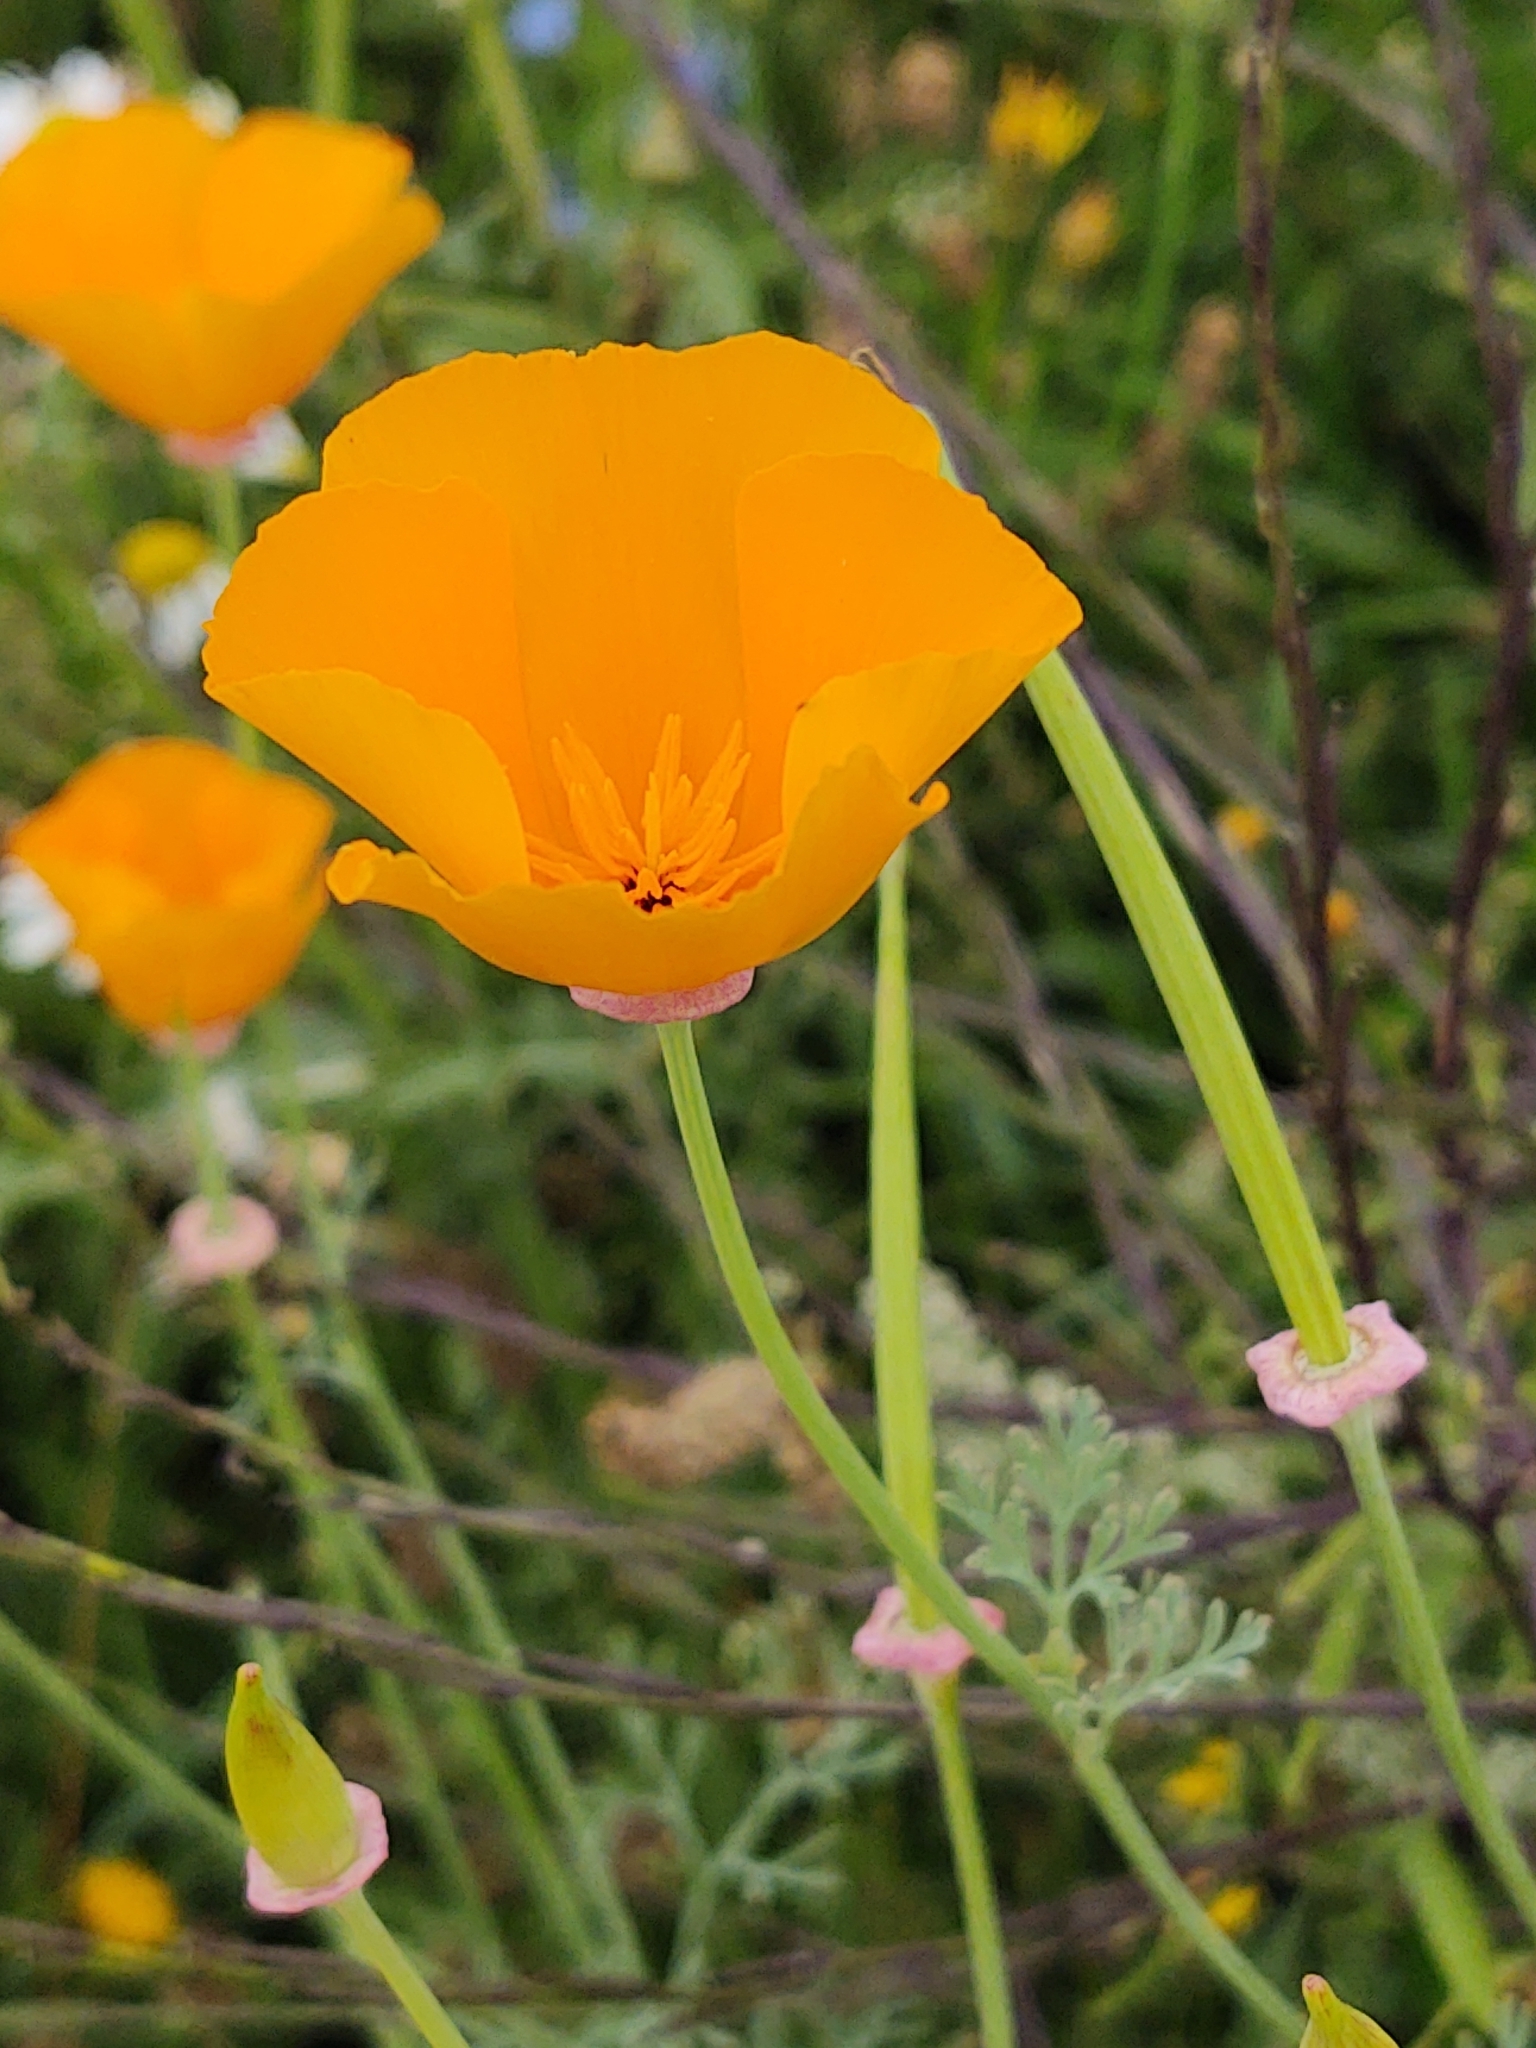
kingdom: Plantae
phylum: Tracheophyta
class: Magnoliopsida
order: Ranunculales
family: Papaveraceae
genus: Eschscholzia
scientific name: Eschscholzia californica
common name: California poppy
